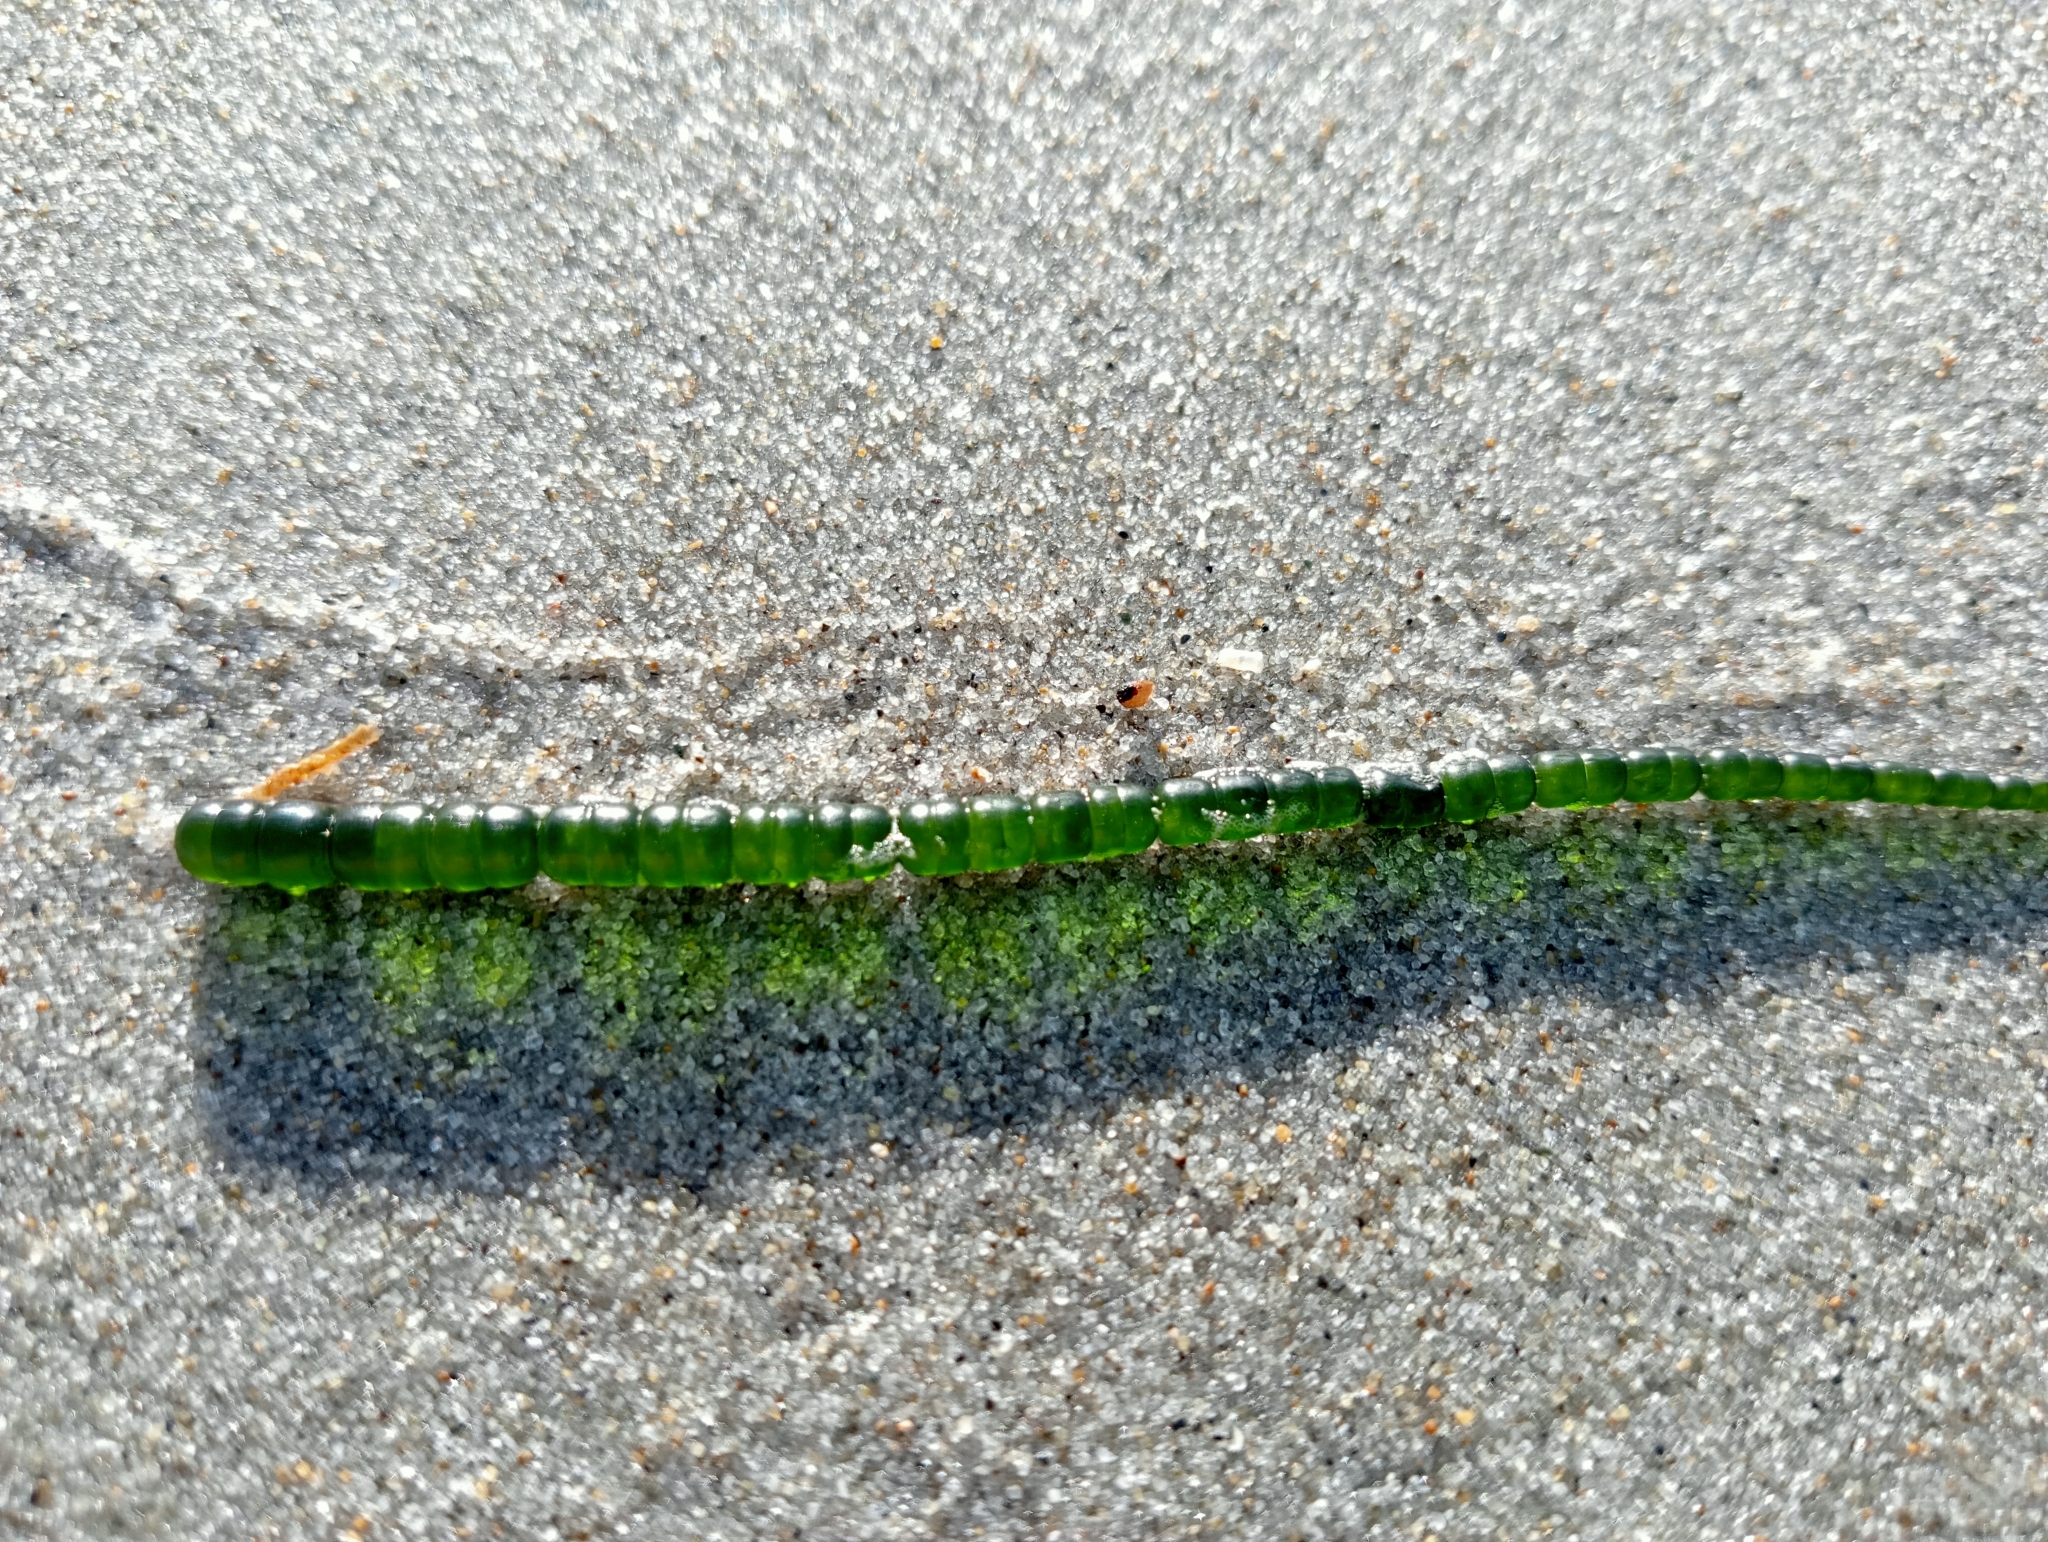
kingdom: Plantae
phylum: Chlorophyta
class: Ulvophyceae
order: Cladophorales
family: Cladophoraceae
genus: Chaetomorpha
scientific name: Chaetomorpha coliformis
